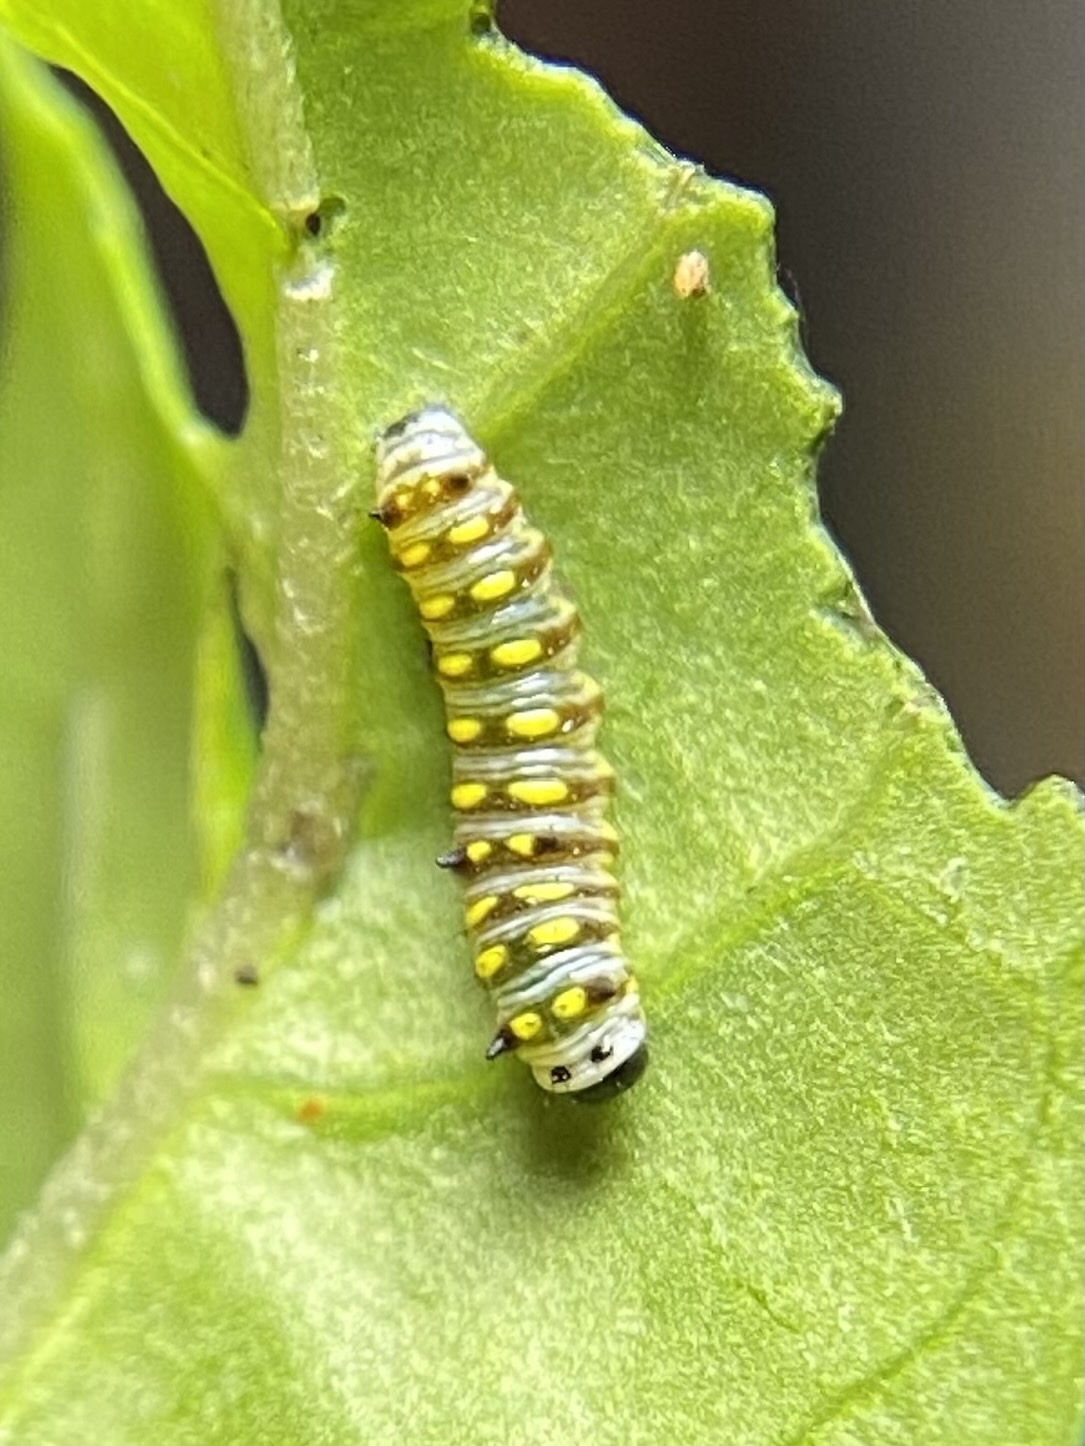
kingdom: Animalia
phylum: Arthropoda
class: Insecta
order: Lepidoptera
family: Nymphalidae
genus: Danaus
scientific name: Danaus gilippus
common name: Queen
